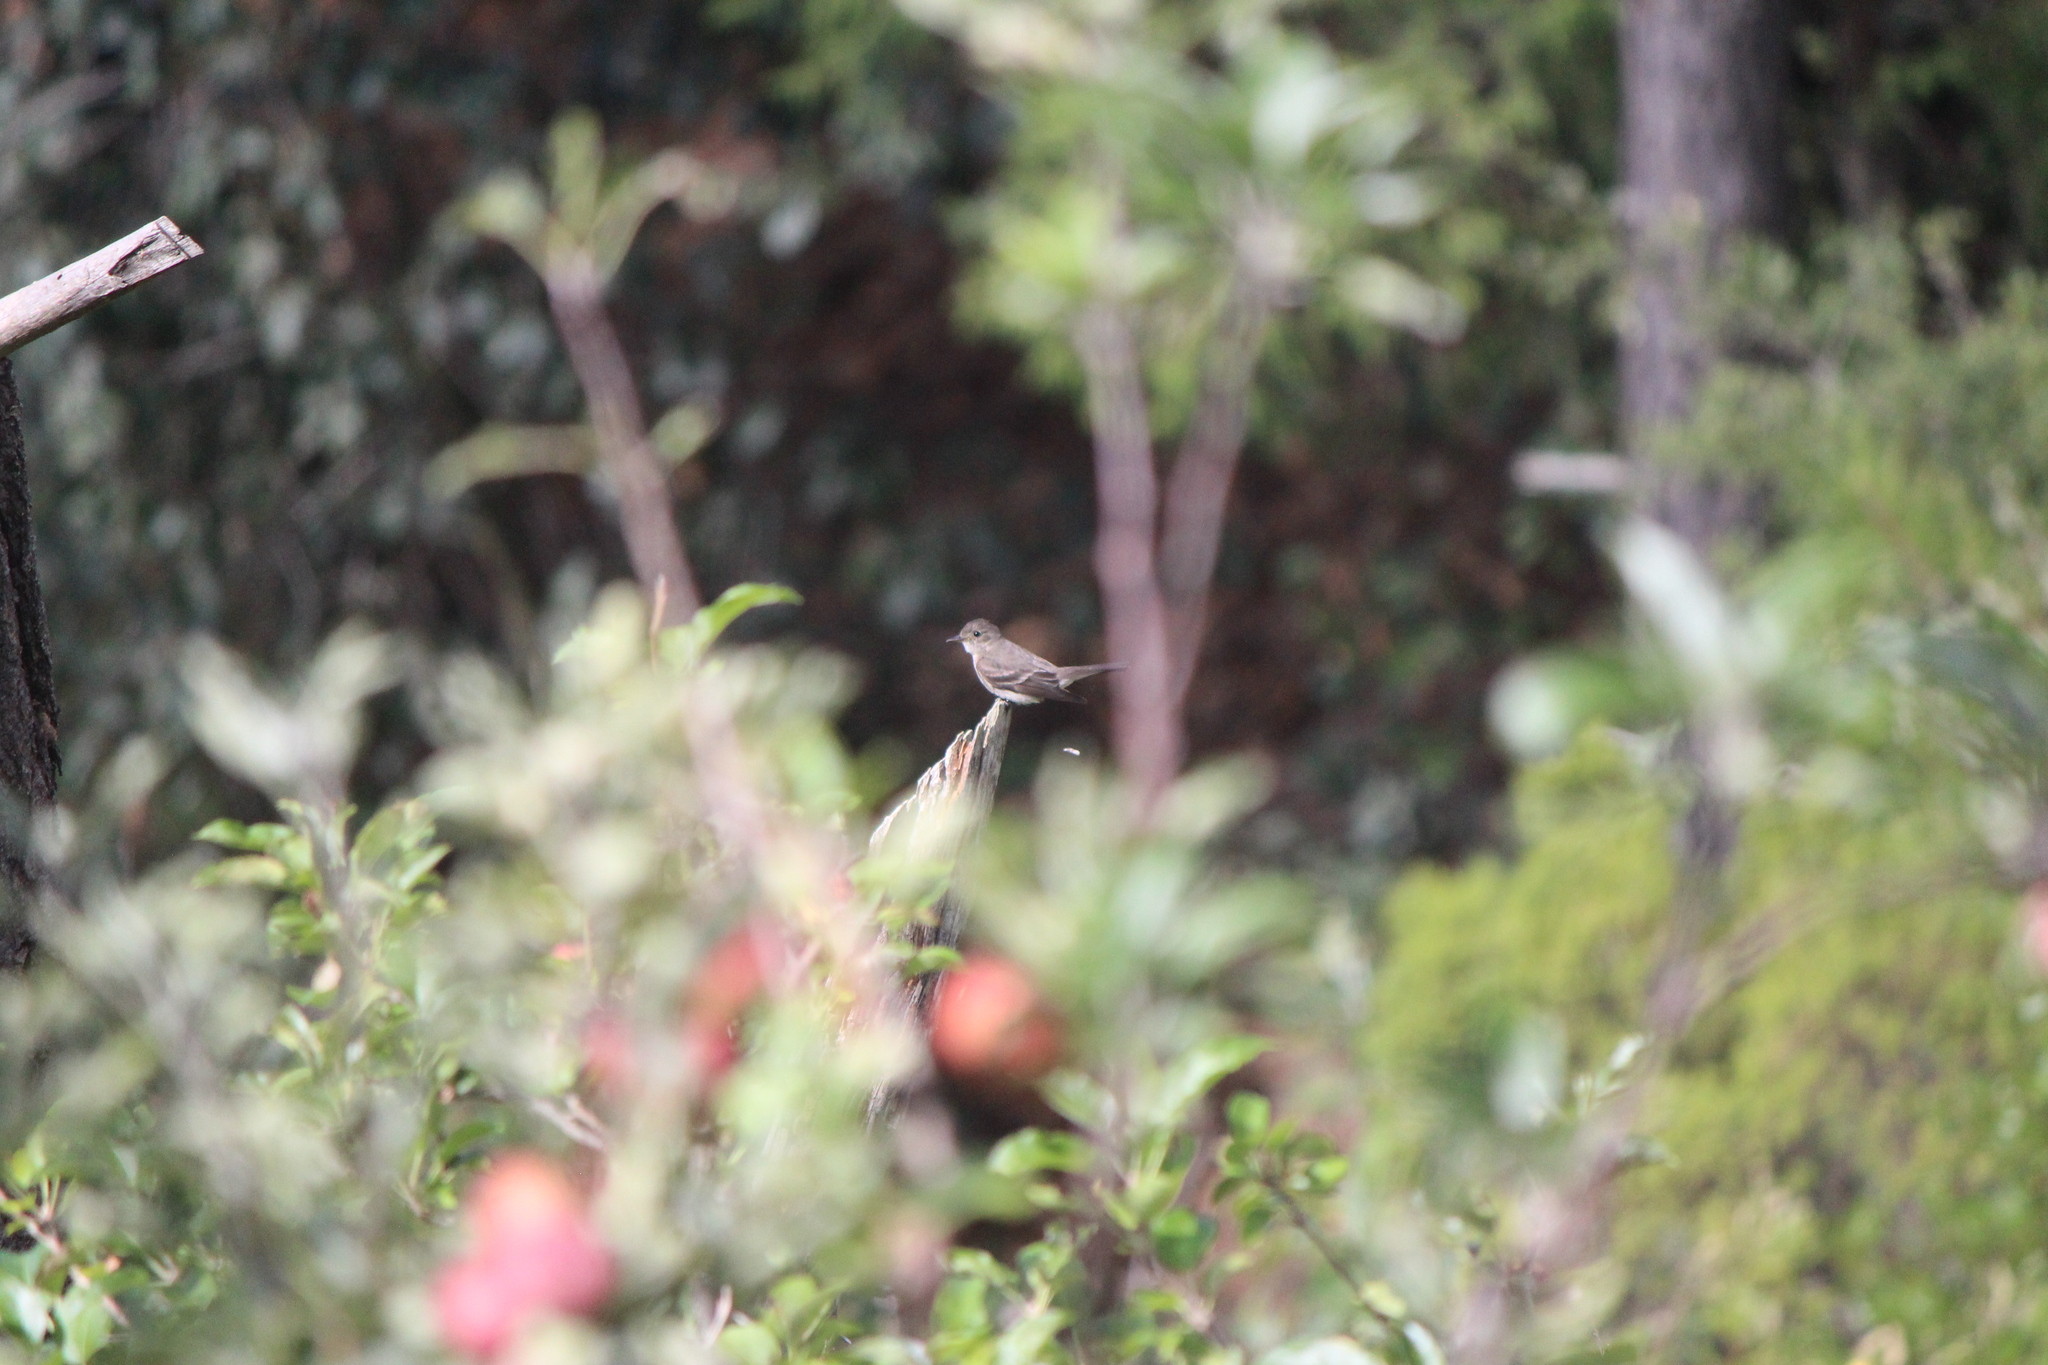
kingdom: Animalia
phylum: Chordata
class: Aves
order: Passeriformes
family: Tyrannidae
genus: Contopus
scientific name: Contopus sordidulus
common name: Western wood-pewee
